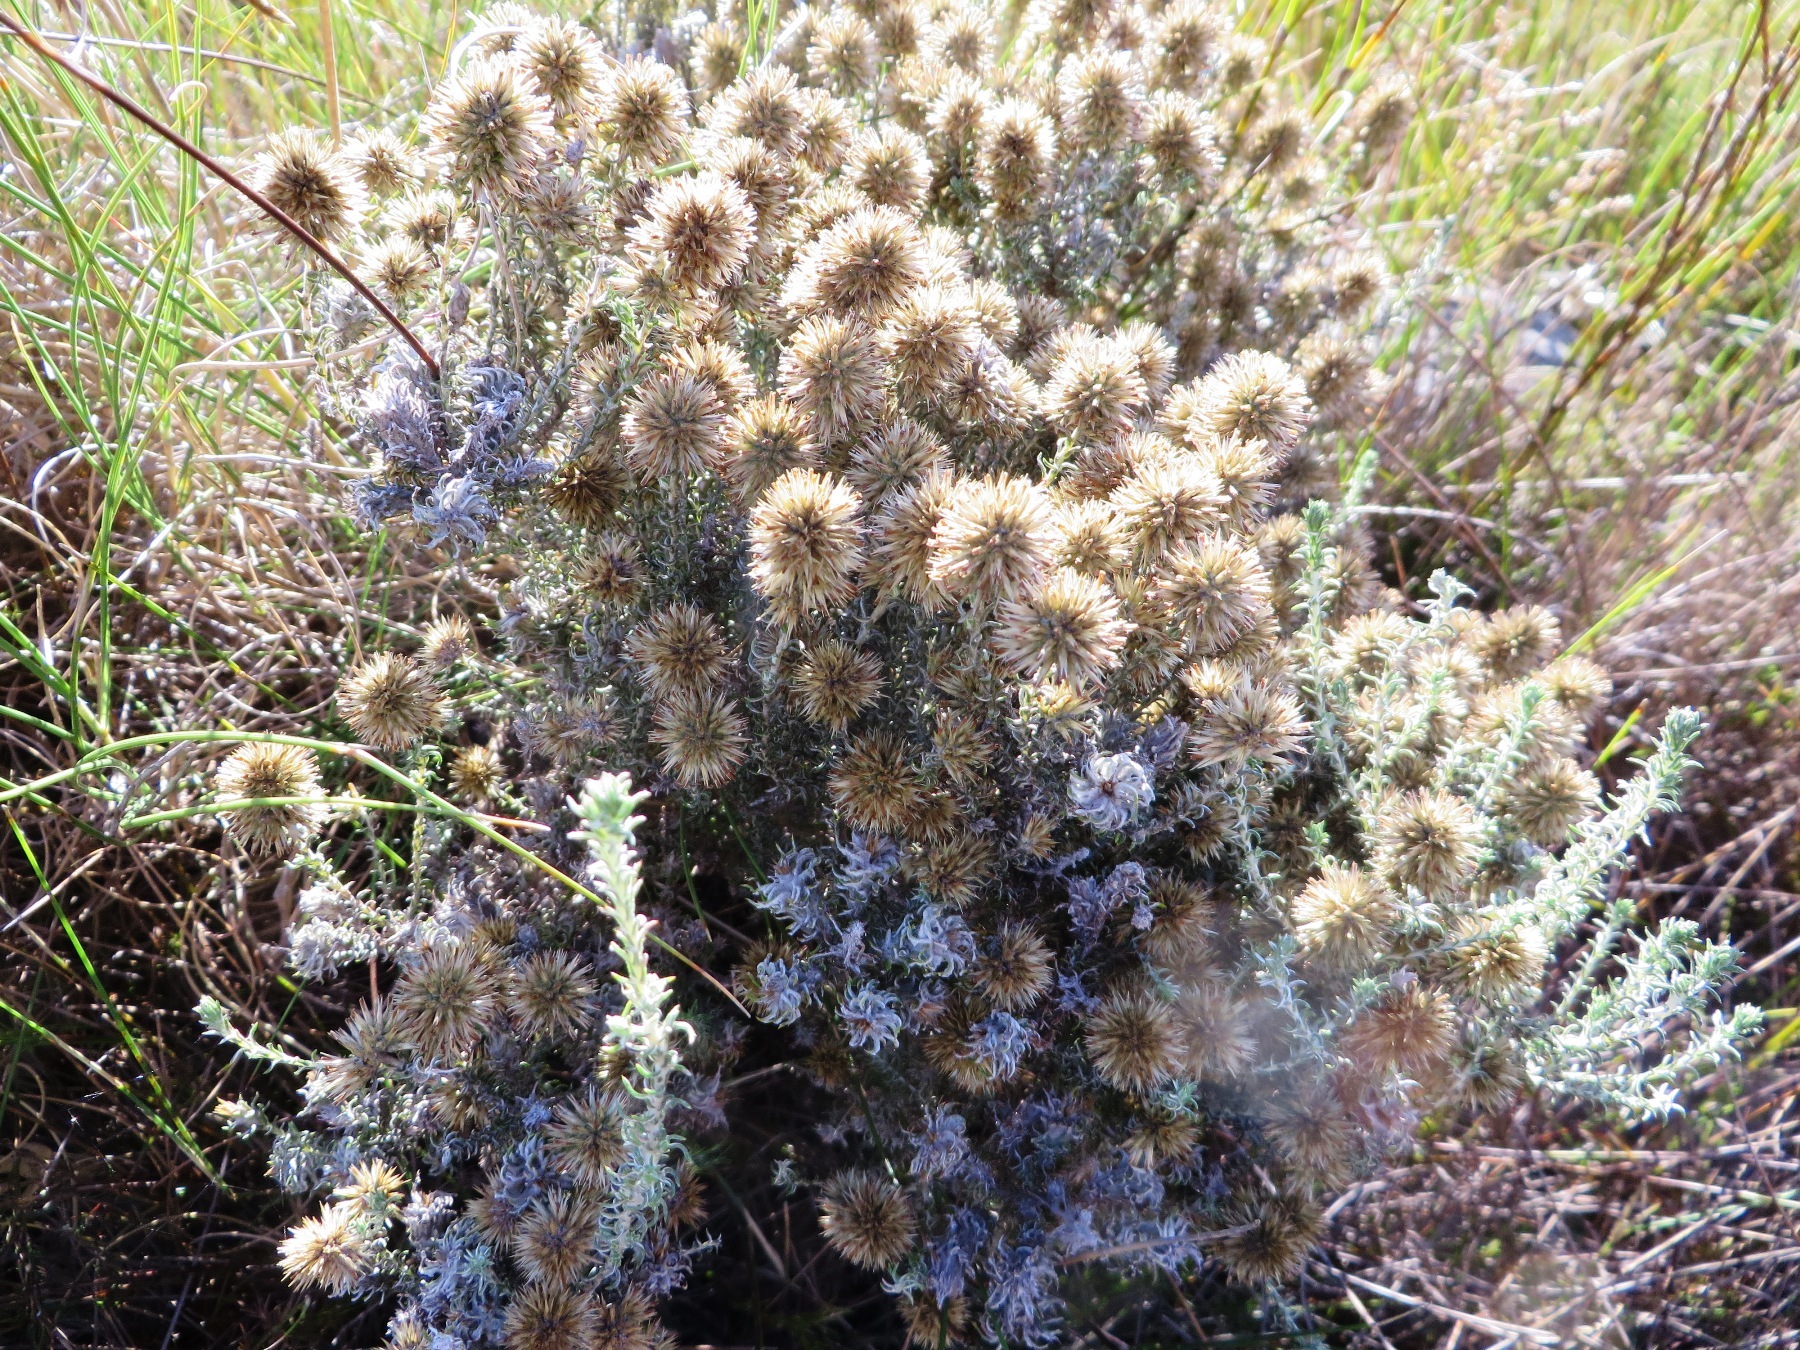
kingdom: Plantae
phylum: Tracheophyta
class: Magnoliopsida
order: Asterales
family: Asteraceae
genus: Seriphium
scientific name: Seriphium spirale
